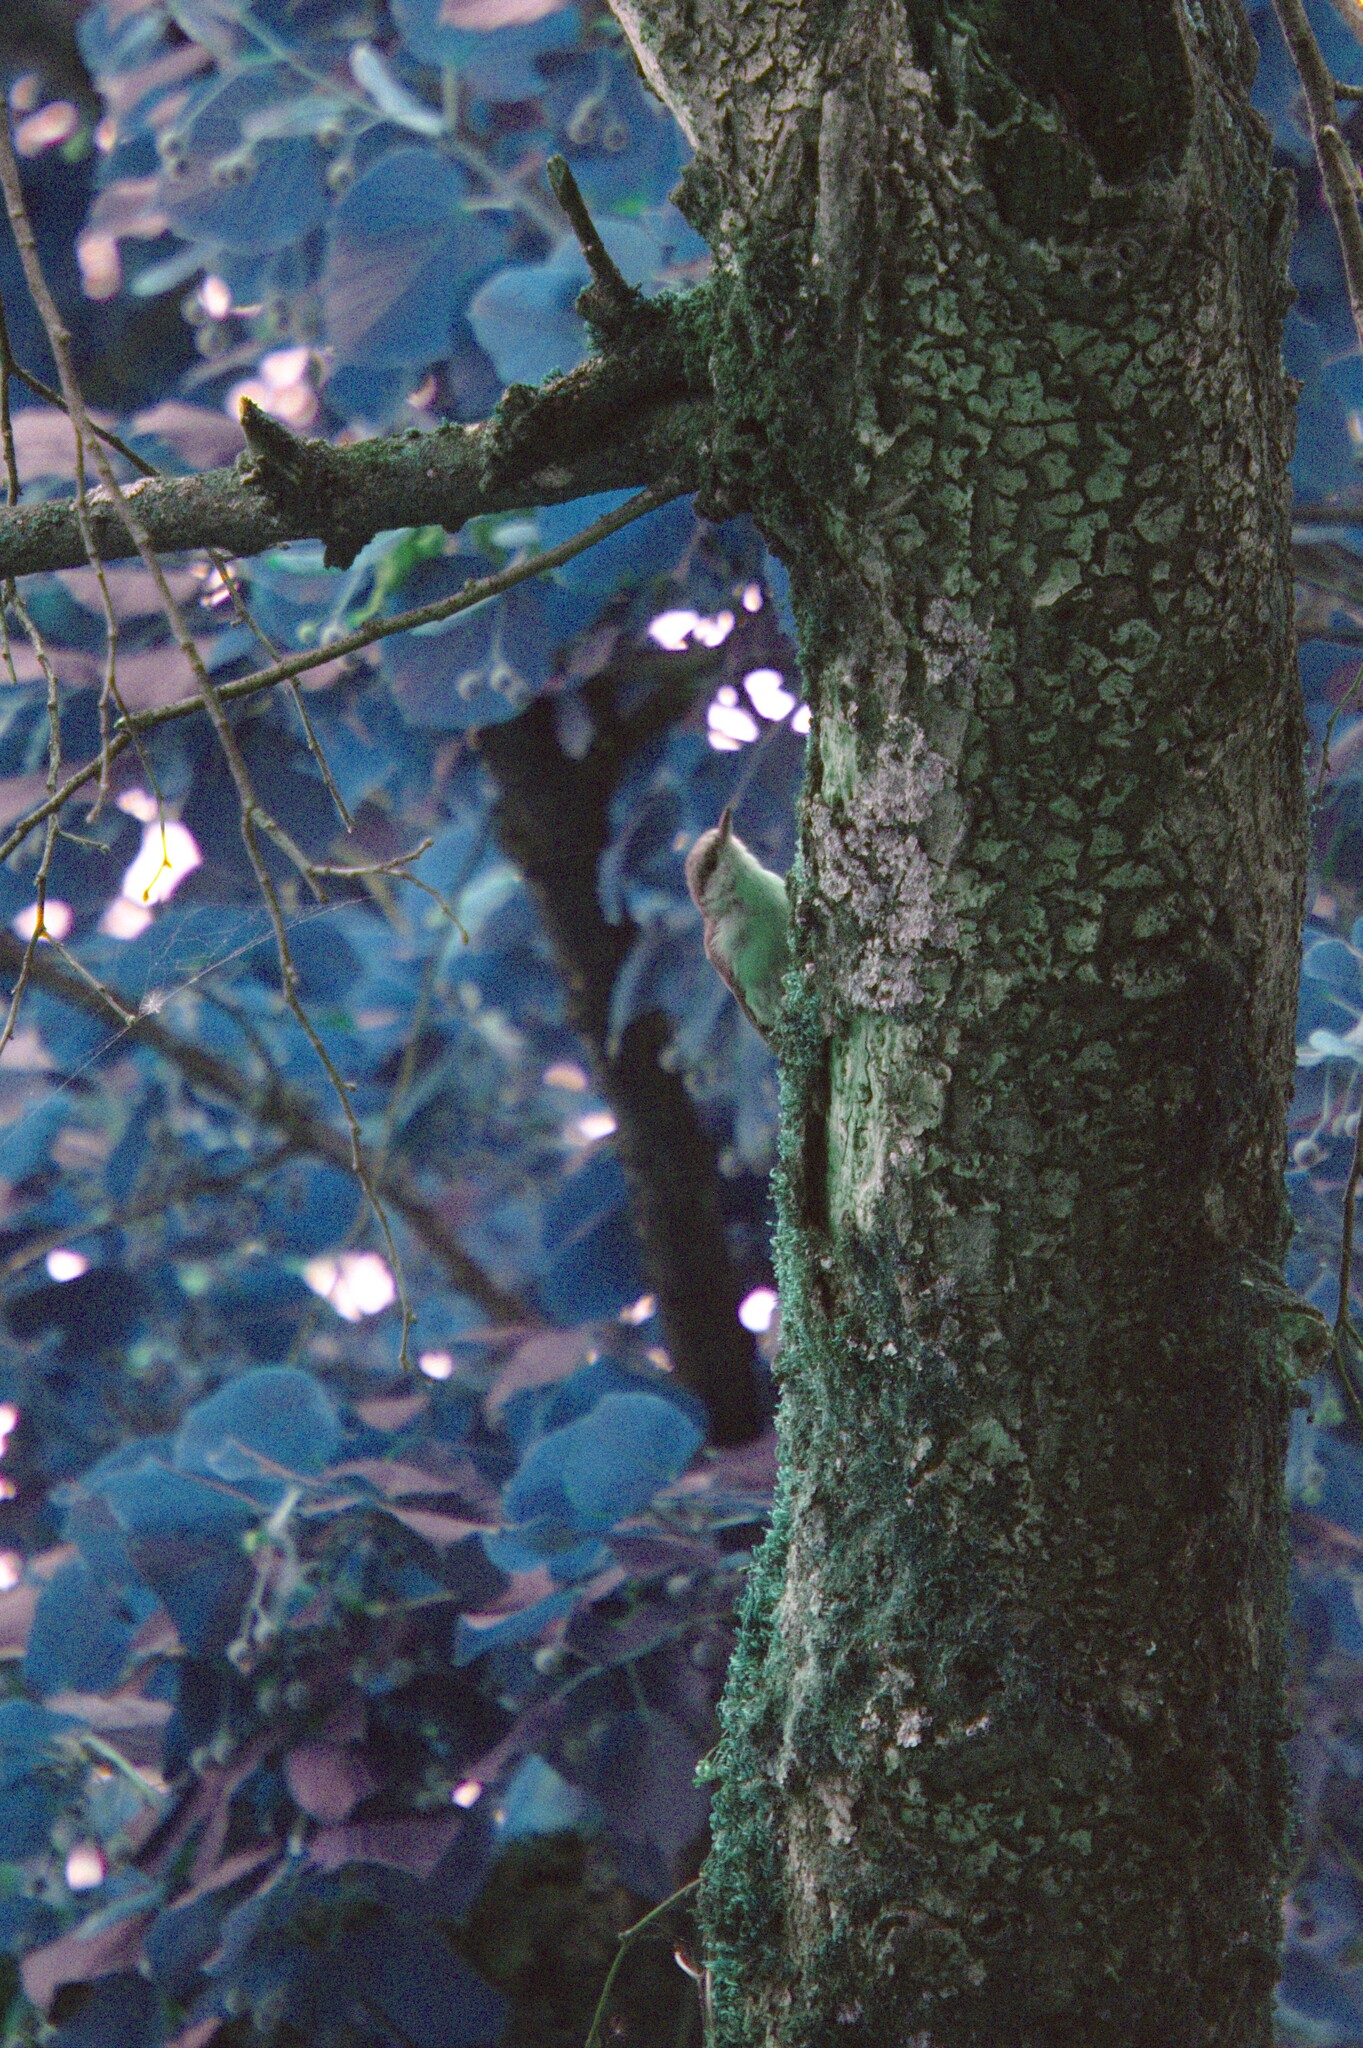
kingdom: Animalia
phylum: Chordata
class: Aves
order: Passeriformes
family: Sittidae
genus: Sitta
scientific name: Sitta europaea
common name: Eurasian nuthatch
